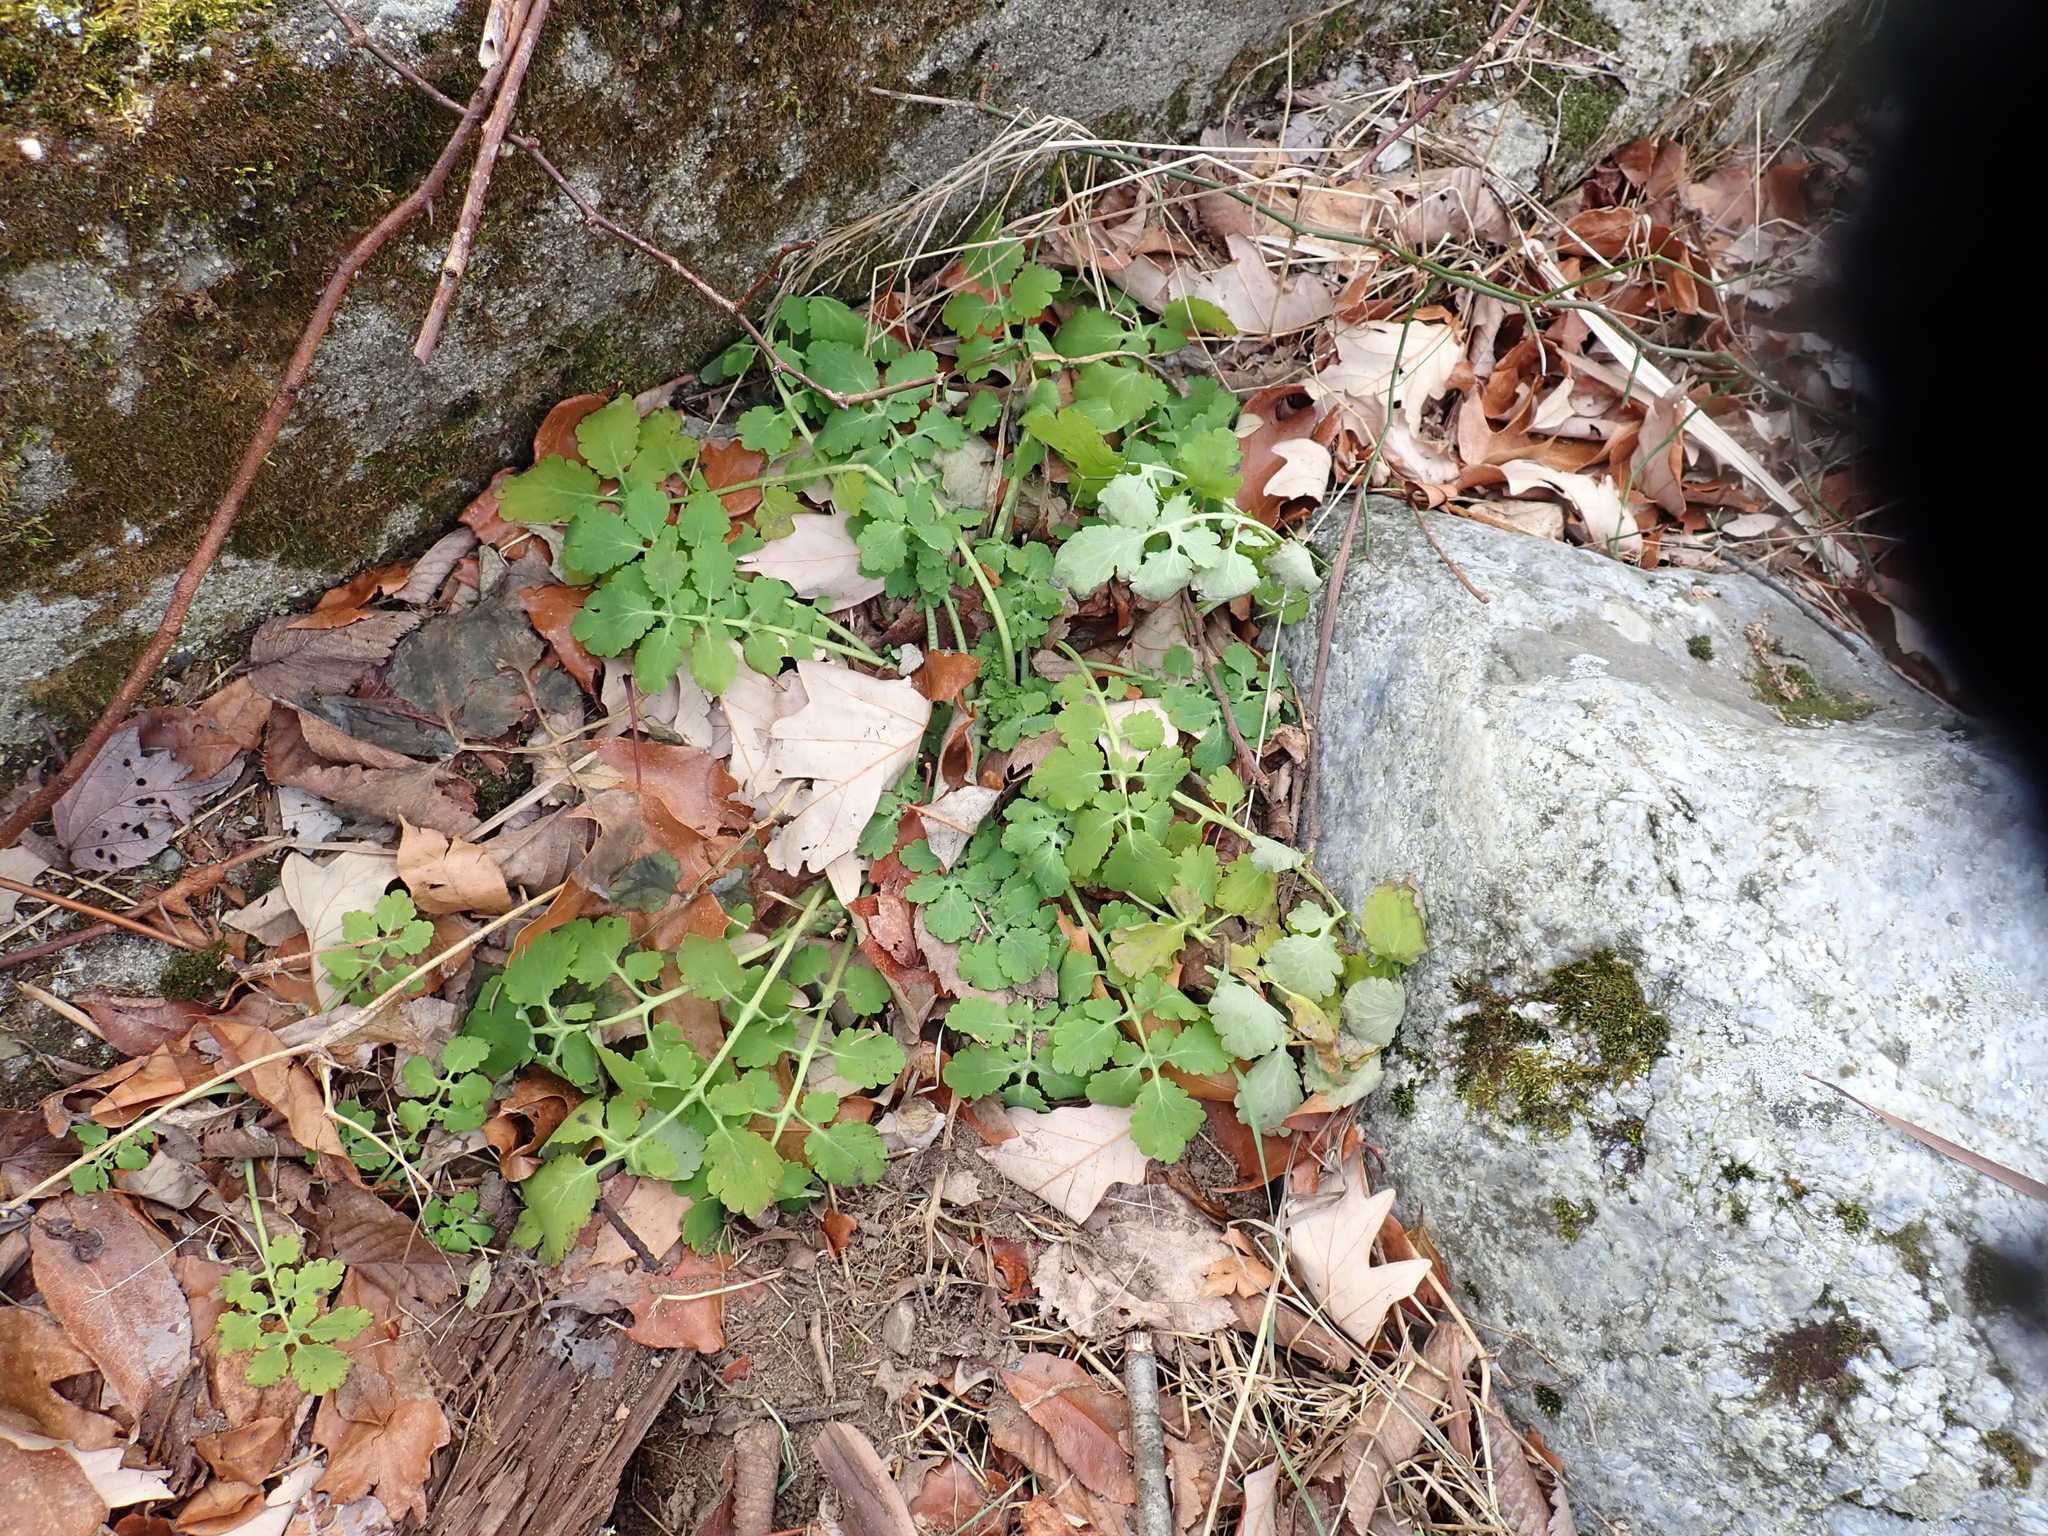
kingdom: Plantae
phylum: Tracheophyta
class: Magnoliopsida
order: Ranunculales
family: Papaveraceae
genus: Chelidonium
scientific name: Chelidonium majus
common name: Greater celandine
